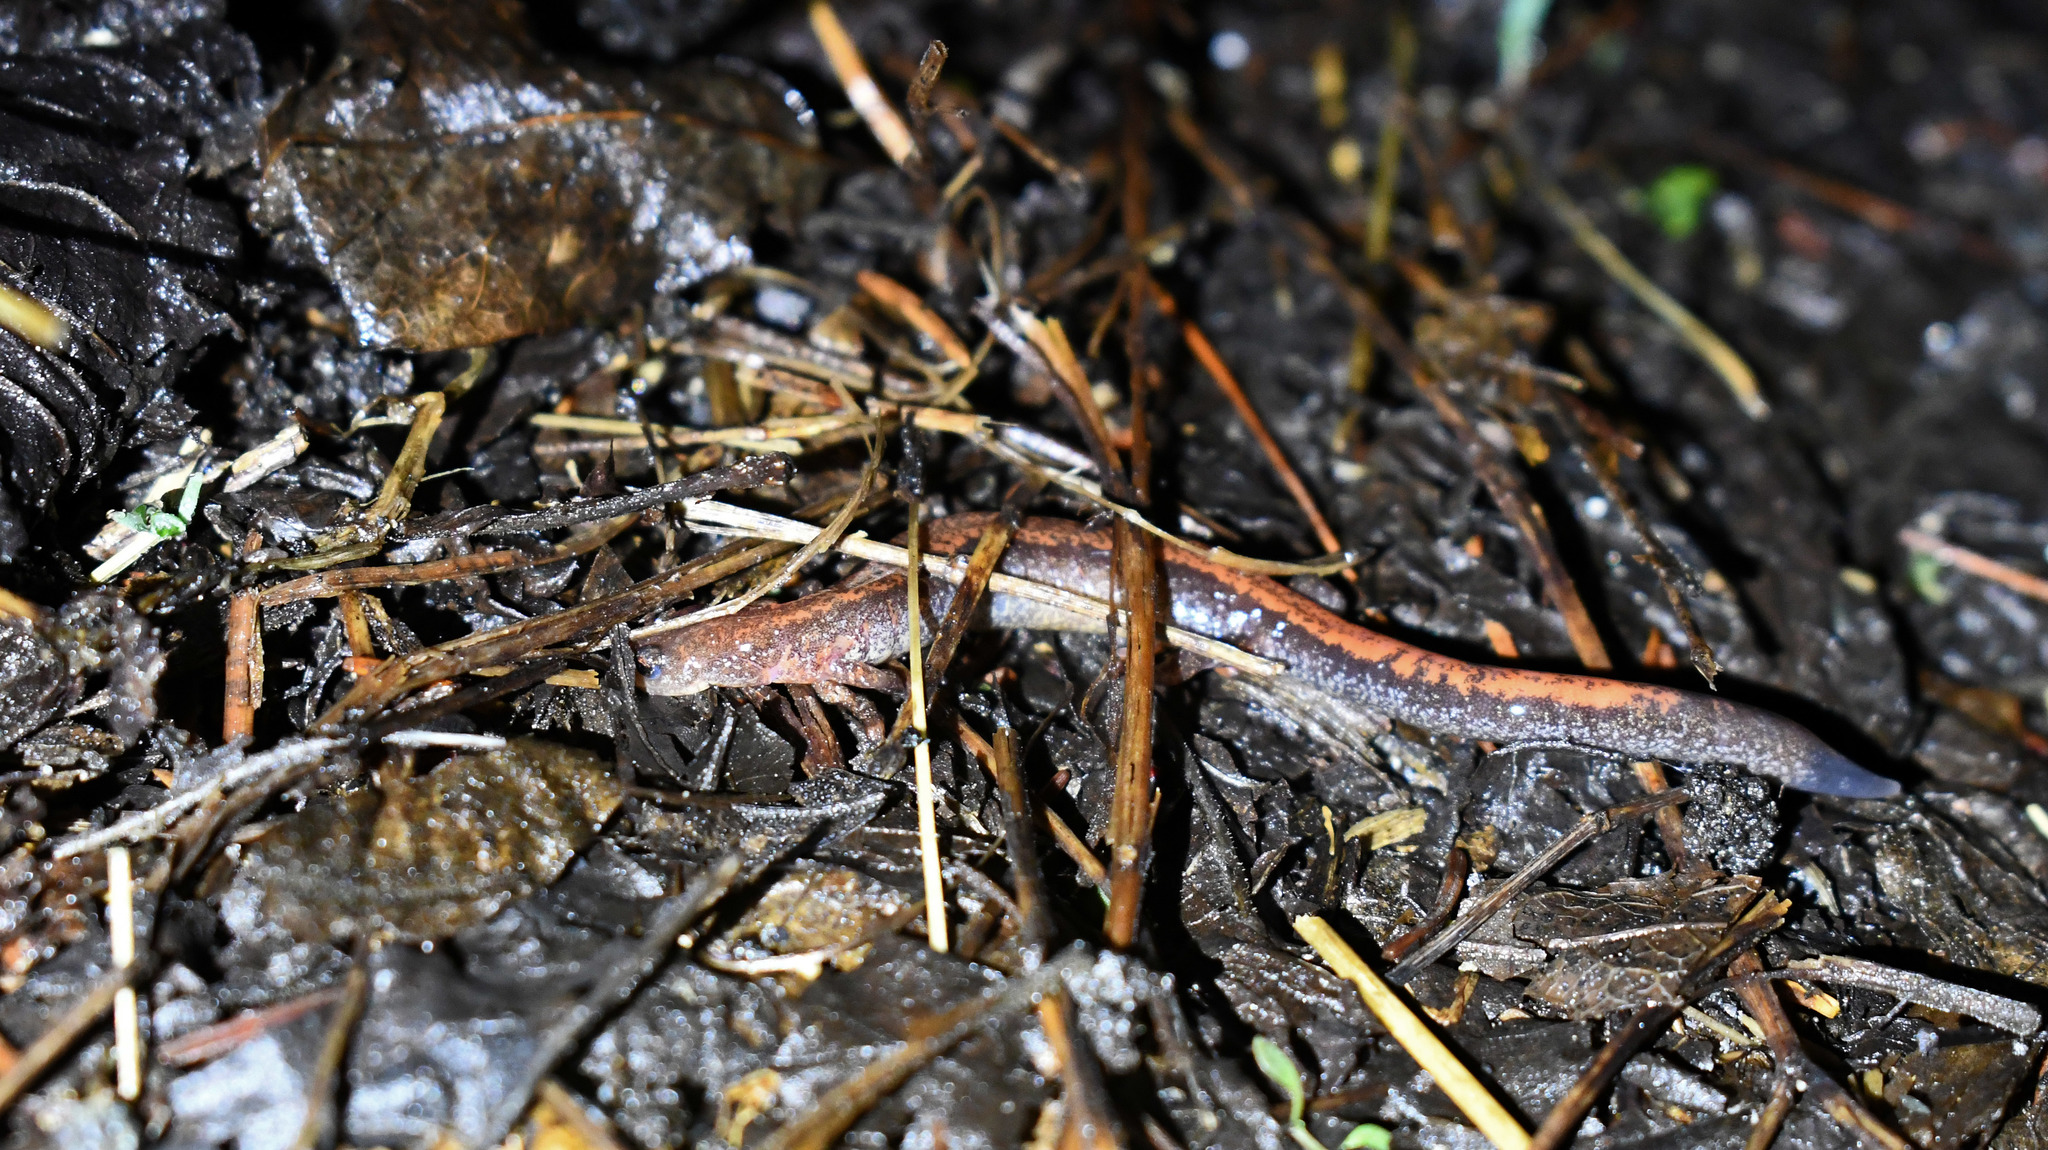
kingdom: Animalia
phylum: Chordata
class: Amphibia
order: Caudata
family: Plethodontidae
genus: Plethodon
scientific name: Plethodon cinereus
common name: Redback salamander
